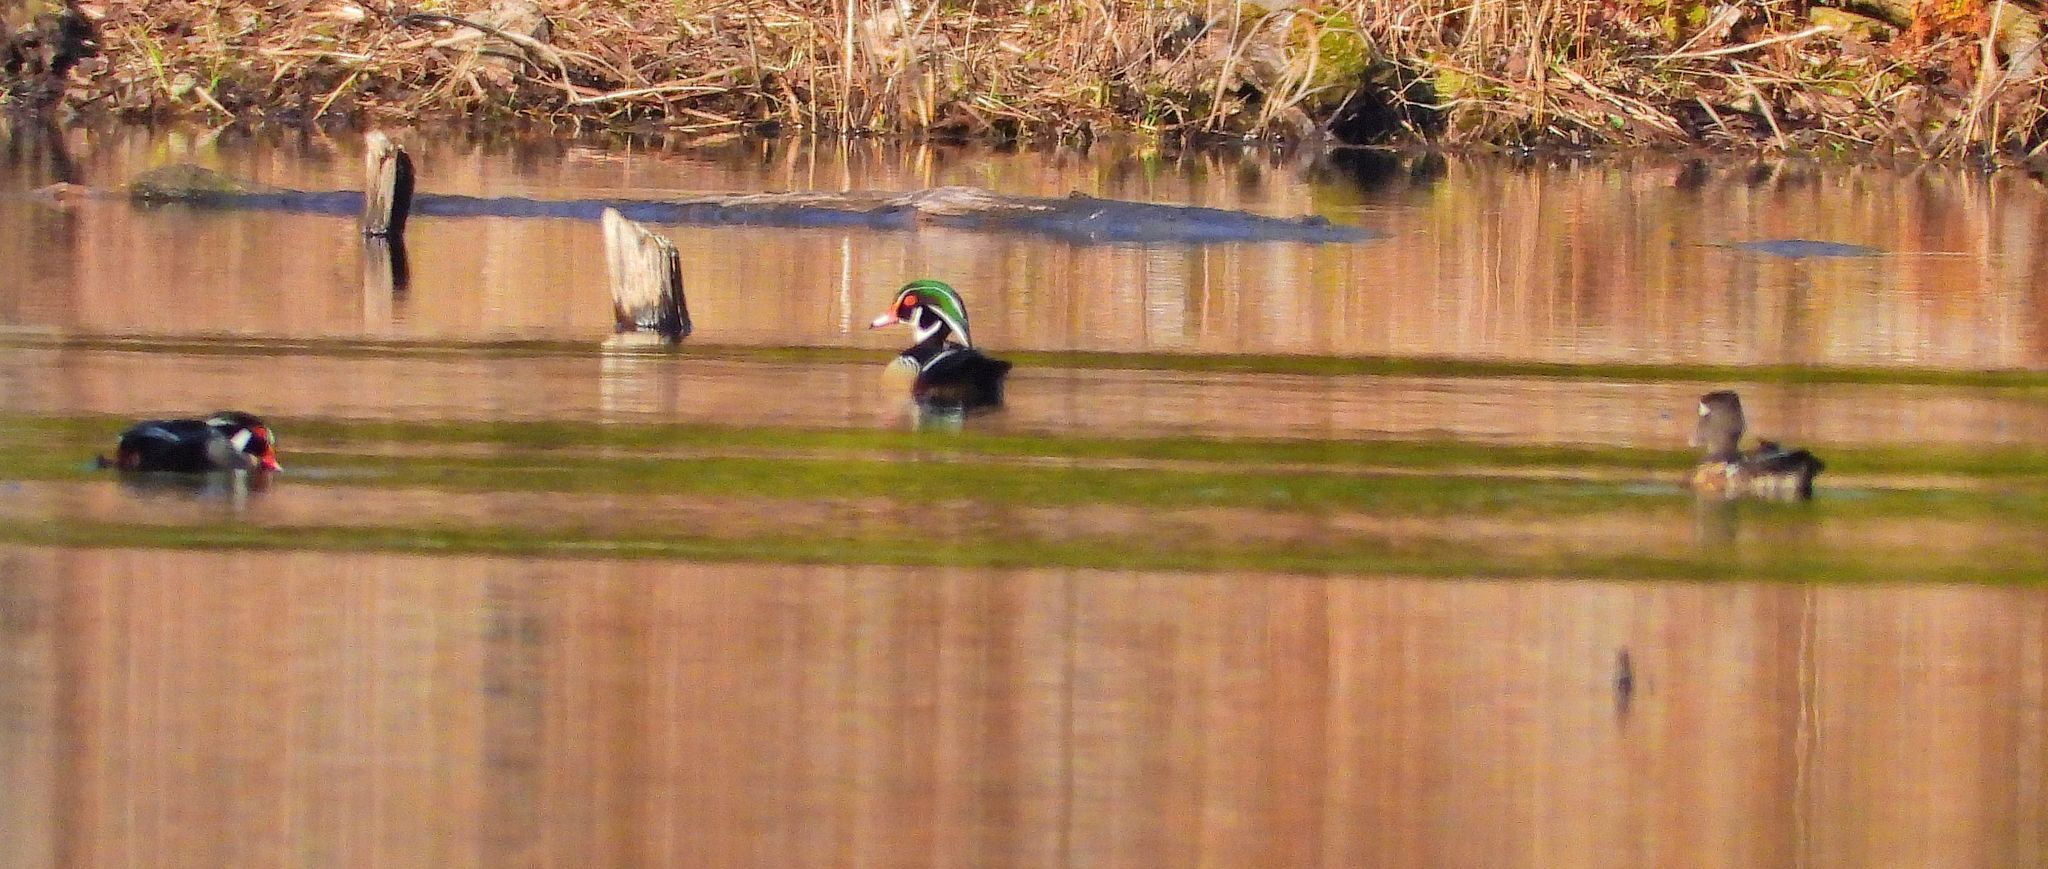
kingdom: Animalia
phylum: Chordata
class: Aves
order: Anseriformes
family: Anatidae
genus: Aix
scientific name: Aix sponsa
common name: Wood duck
